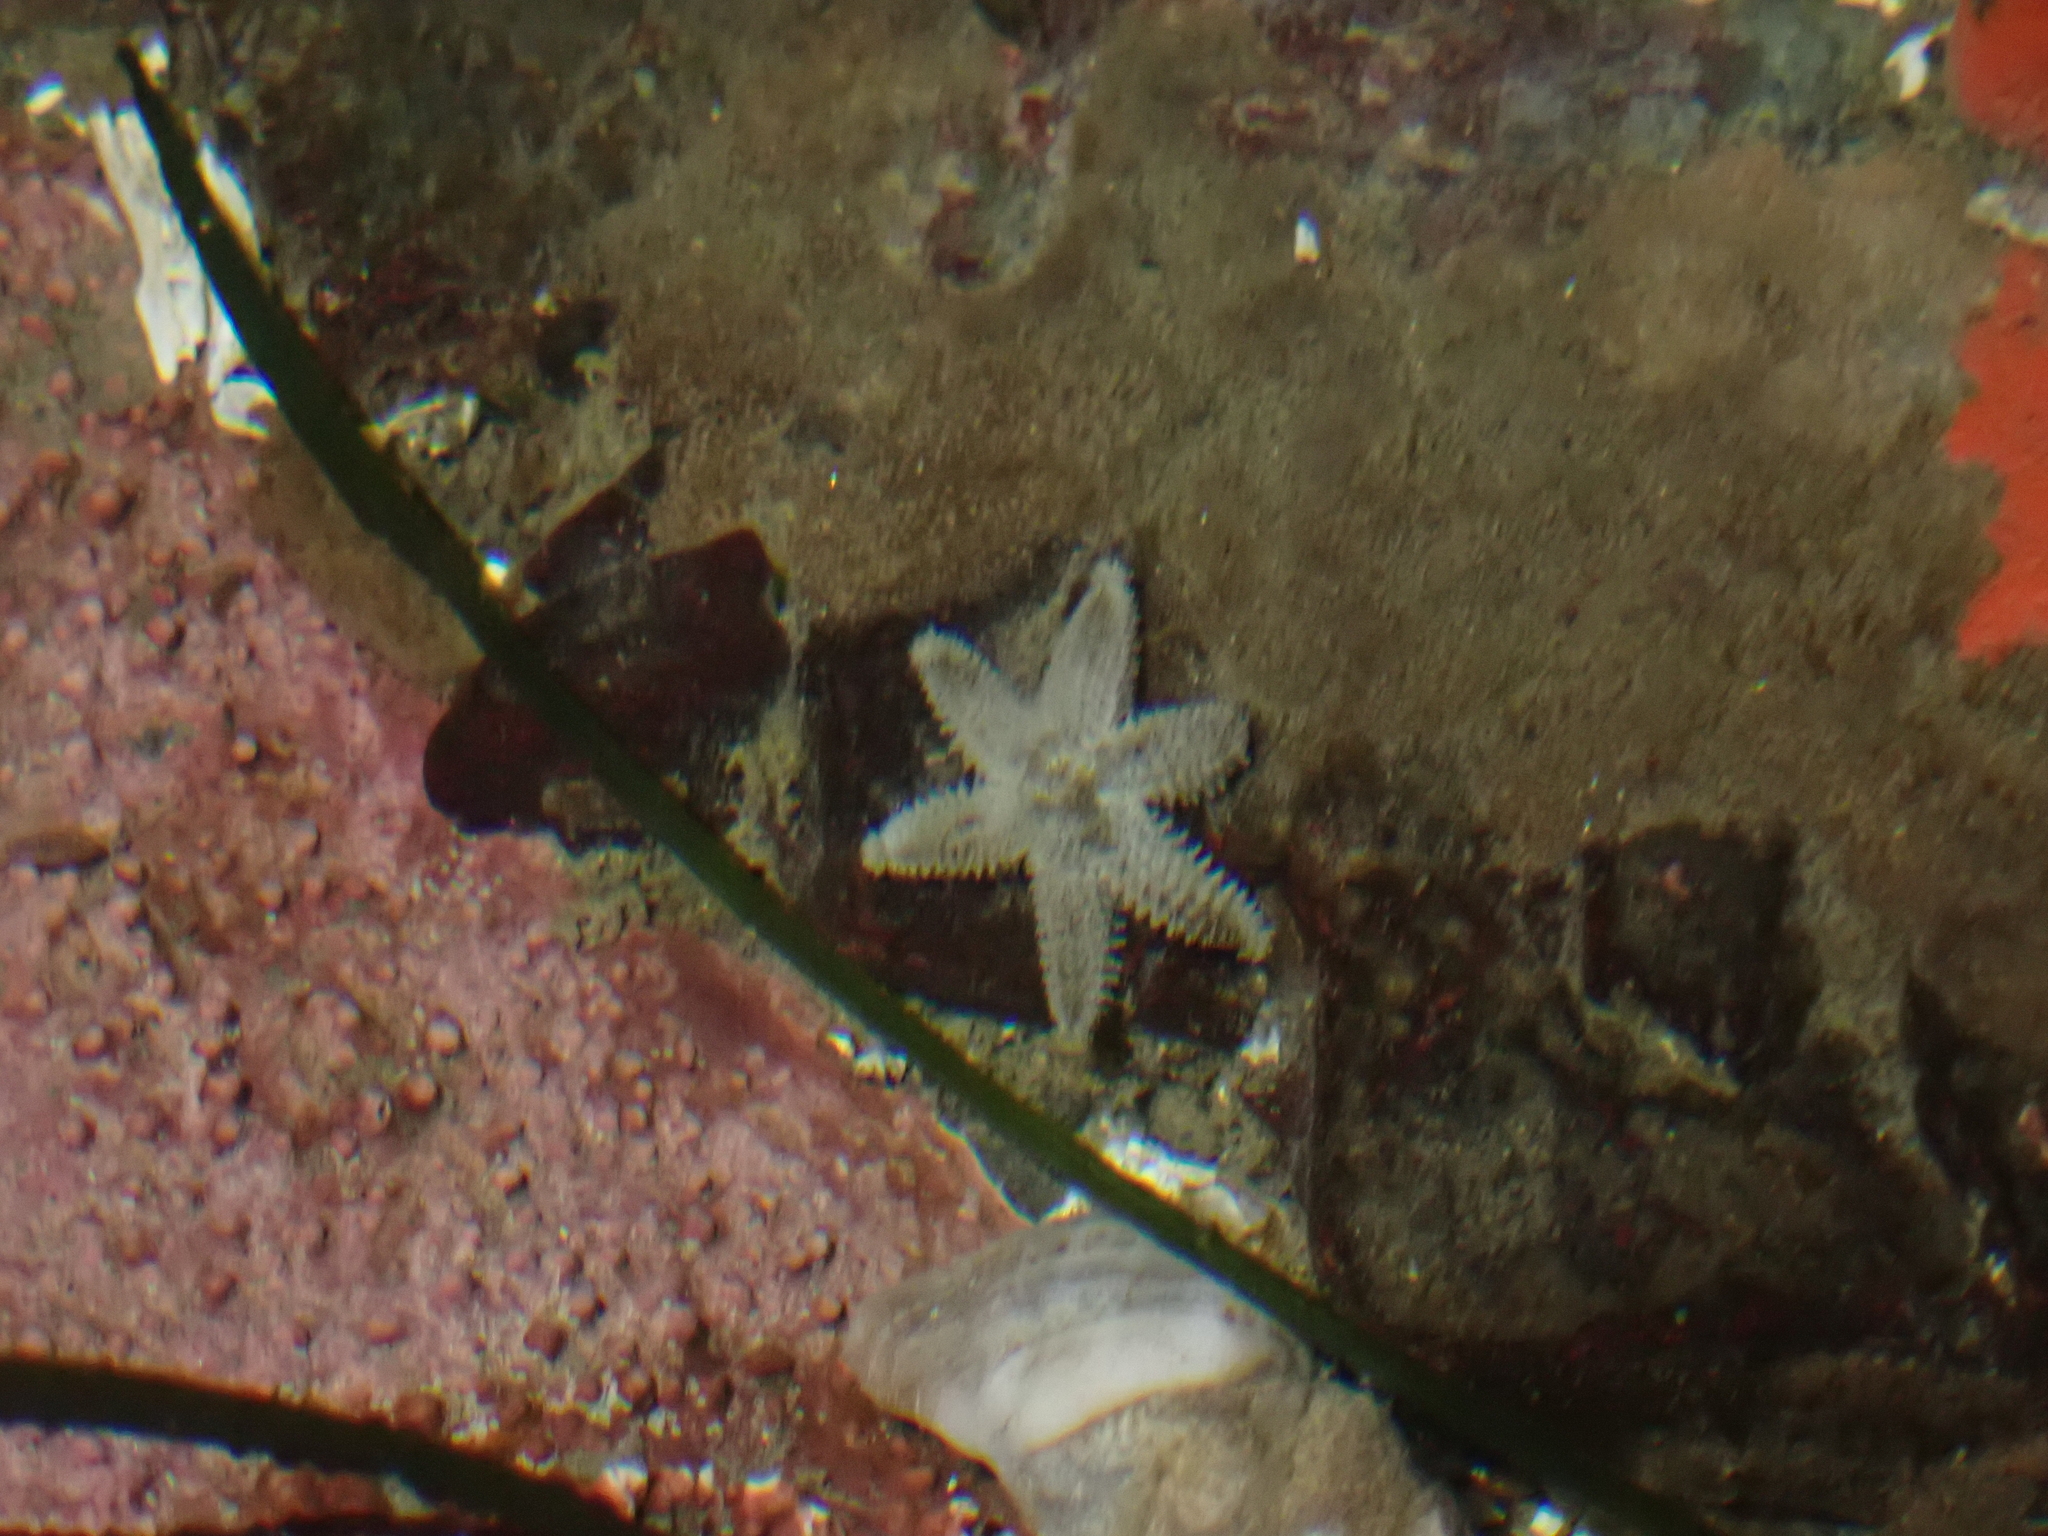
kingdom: Animalia
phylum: Echinodermata
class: Asteroidea
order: Forcipulatida
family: Asteriidae
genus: Leptasterias
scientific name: Leptasterias hexactis
